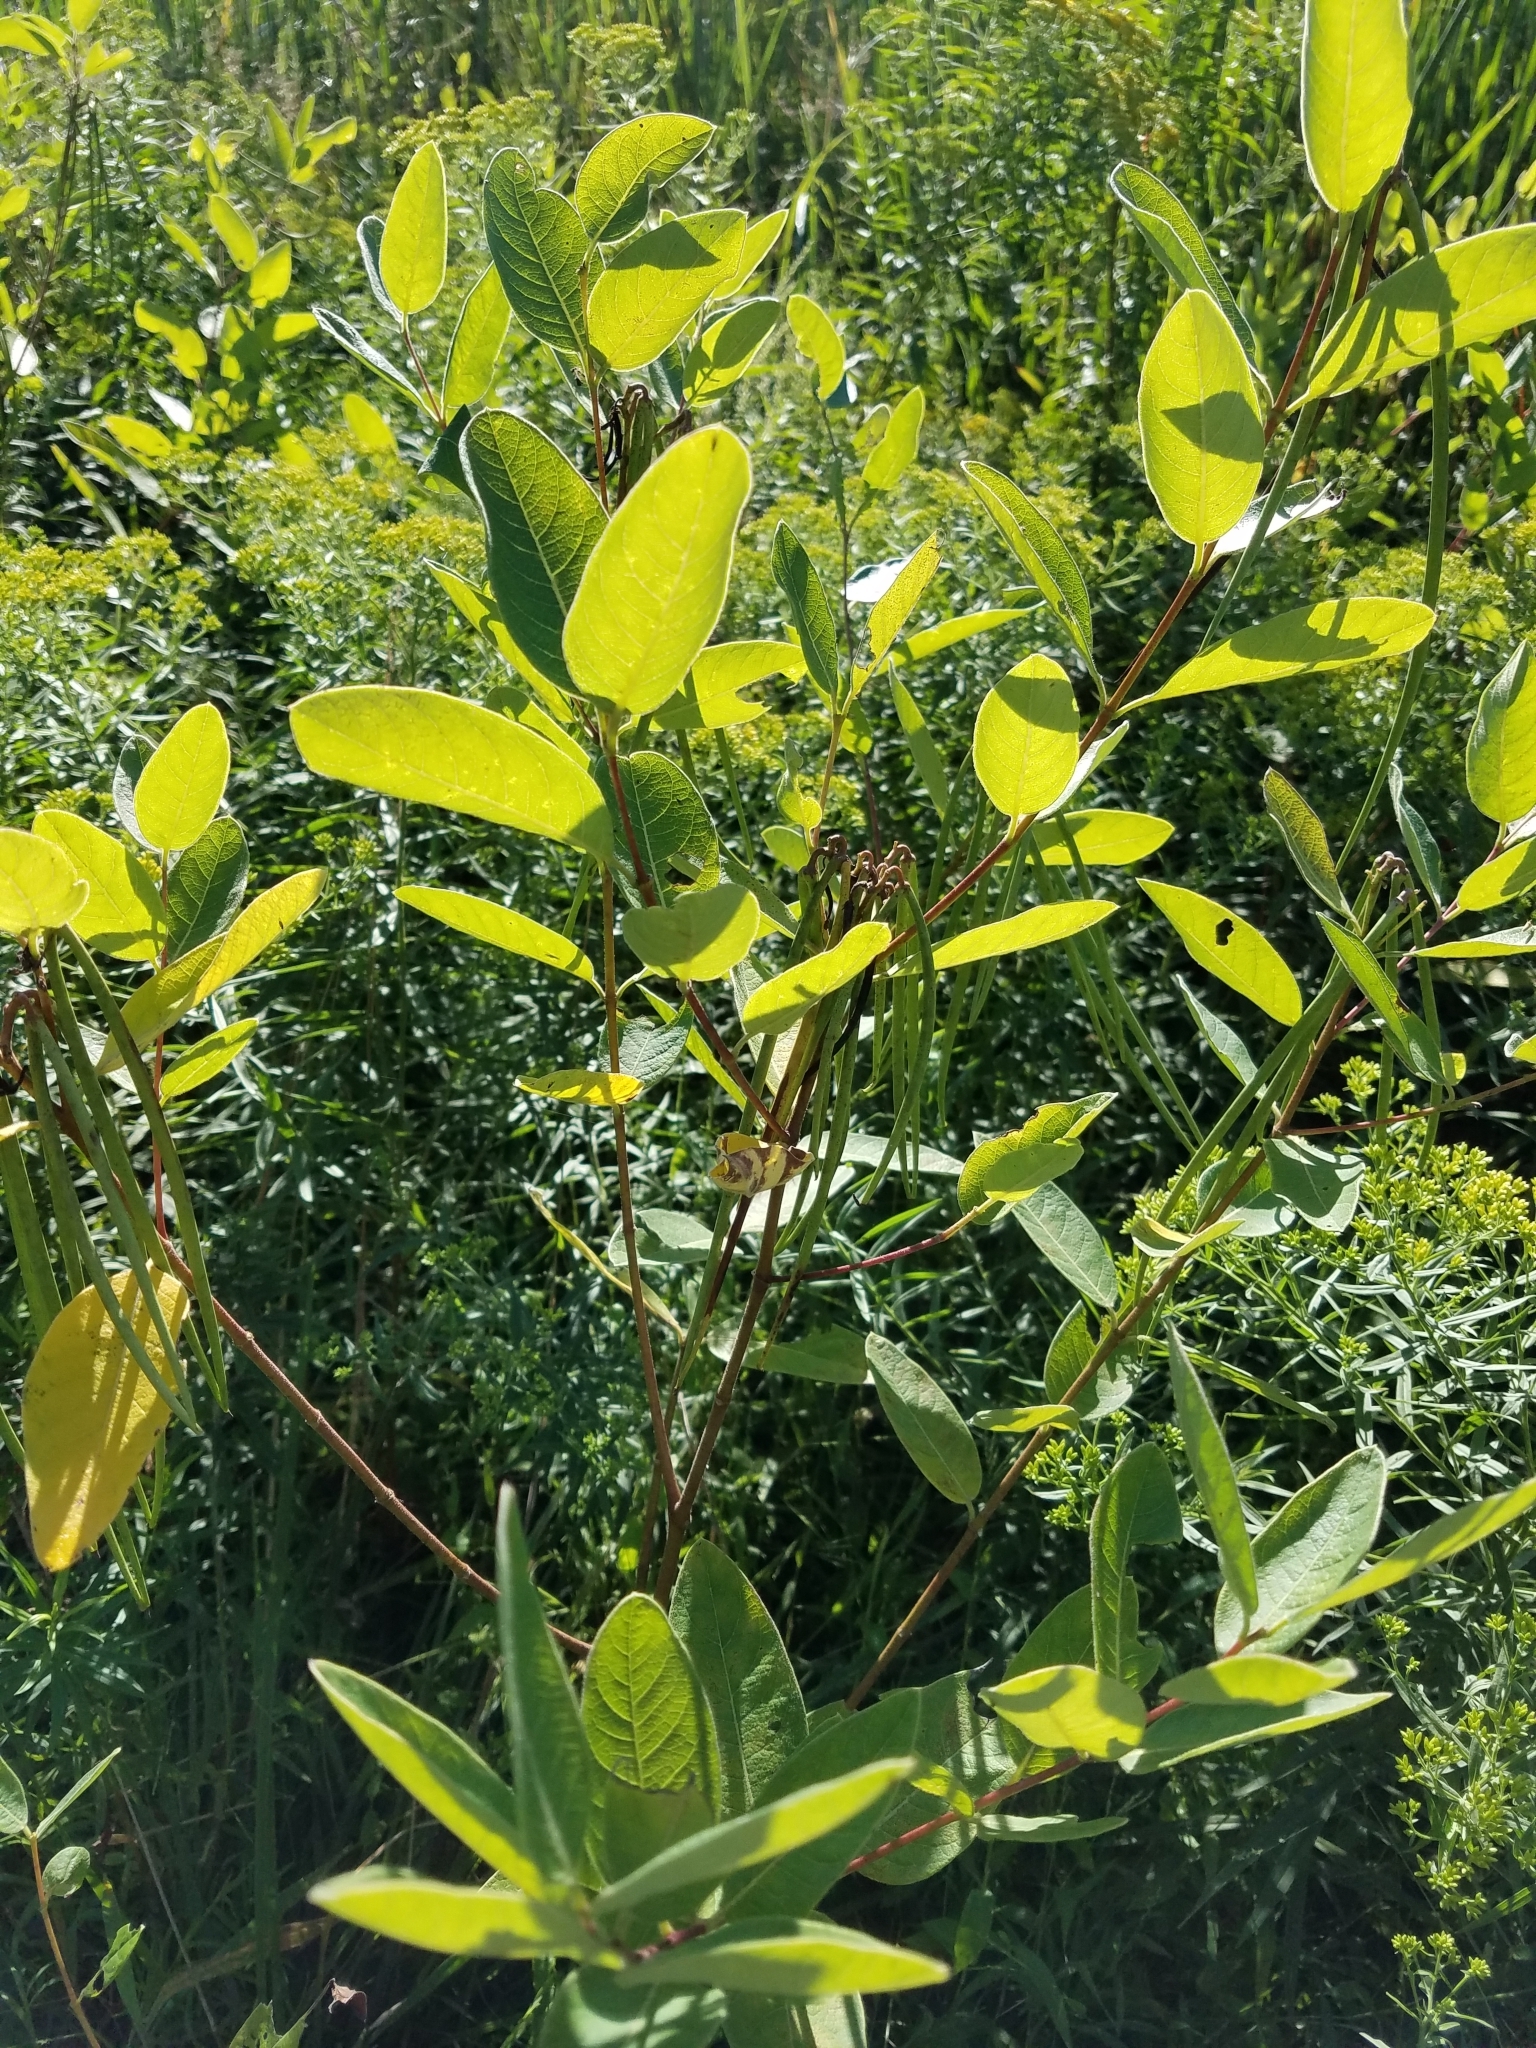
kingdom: Plantae
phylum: Tracheophyta
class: Magnoliopsida
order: Gentianales
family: Apocynaceae
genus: Apocynum
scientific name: Apocynum cannabinum
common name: Hemp dogbane
